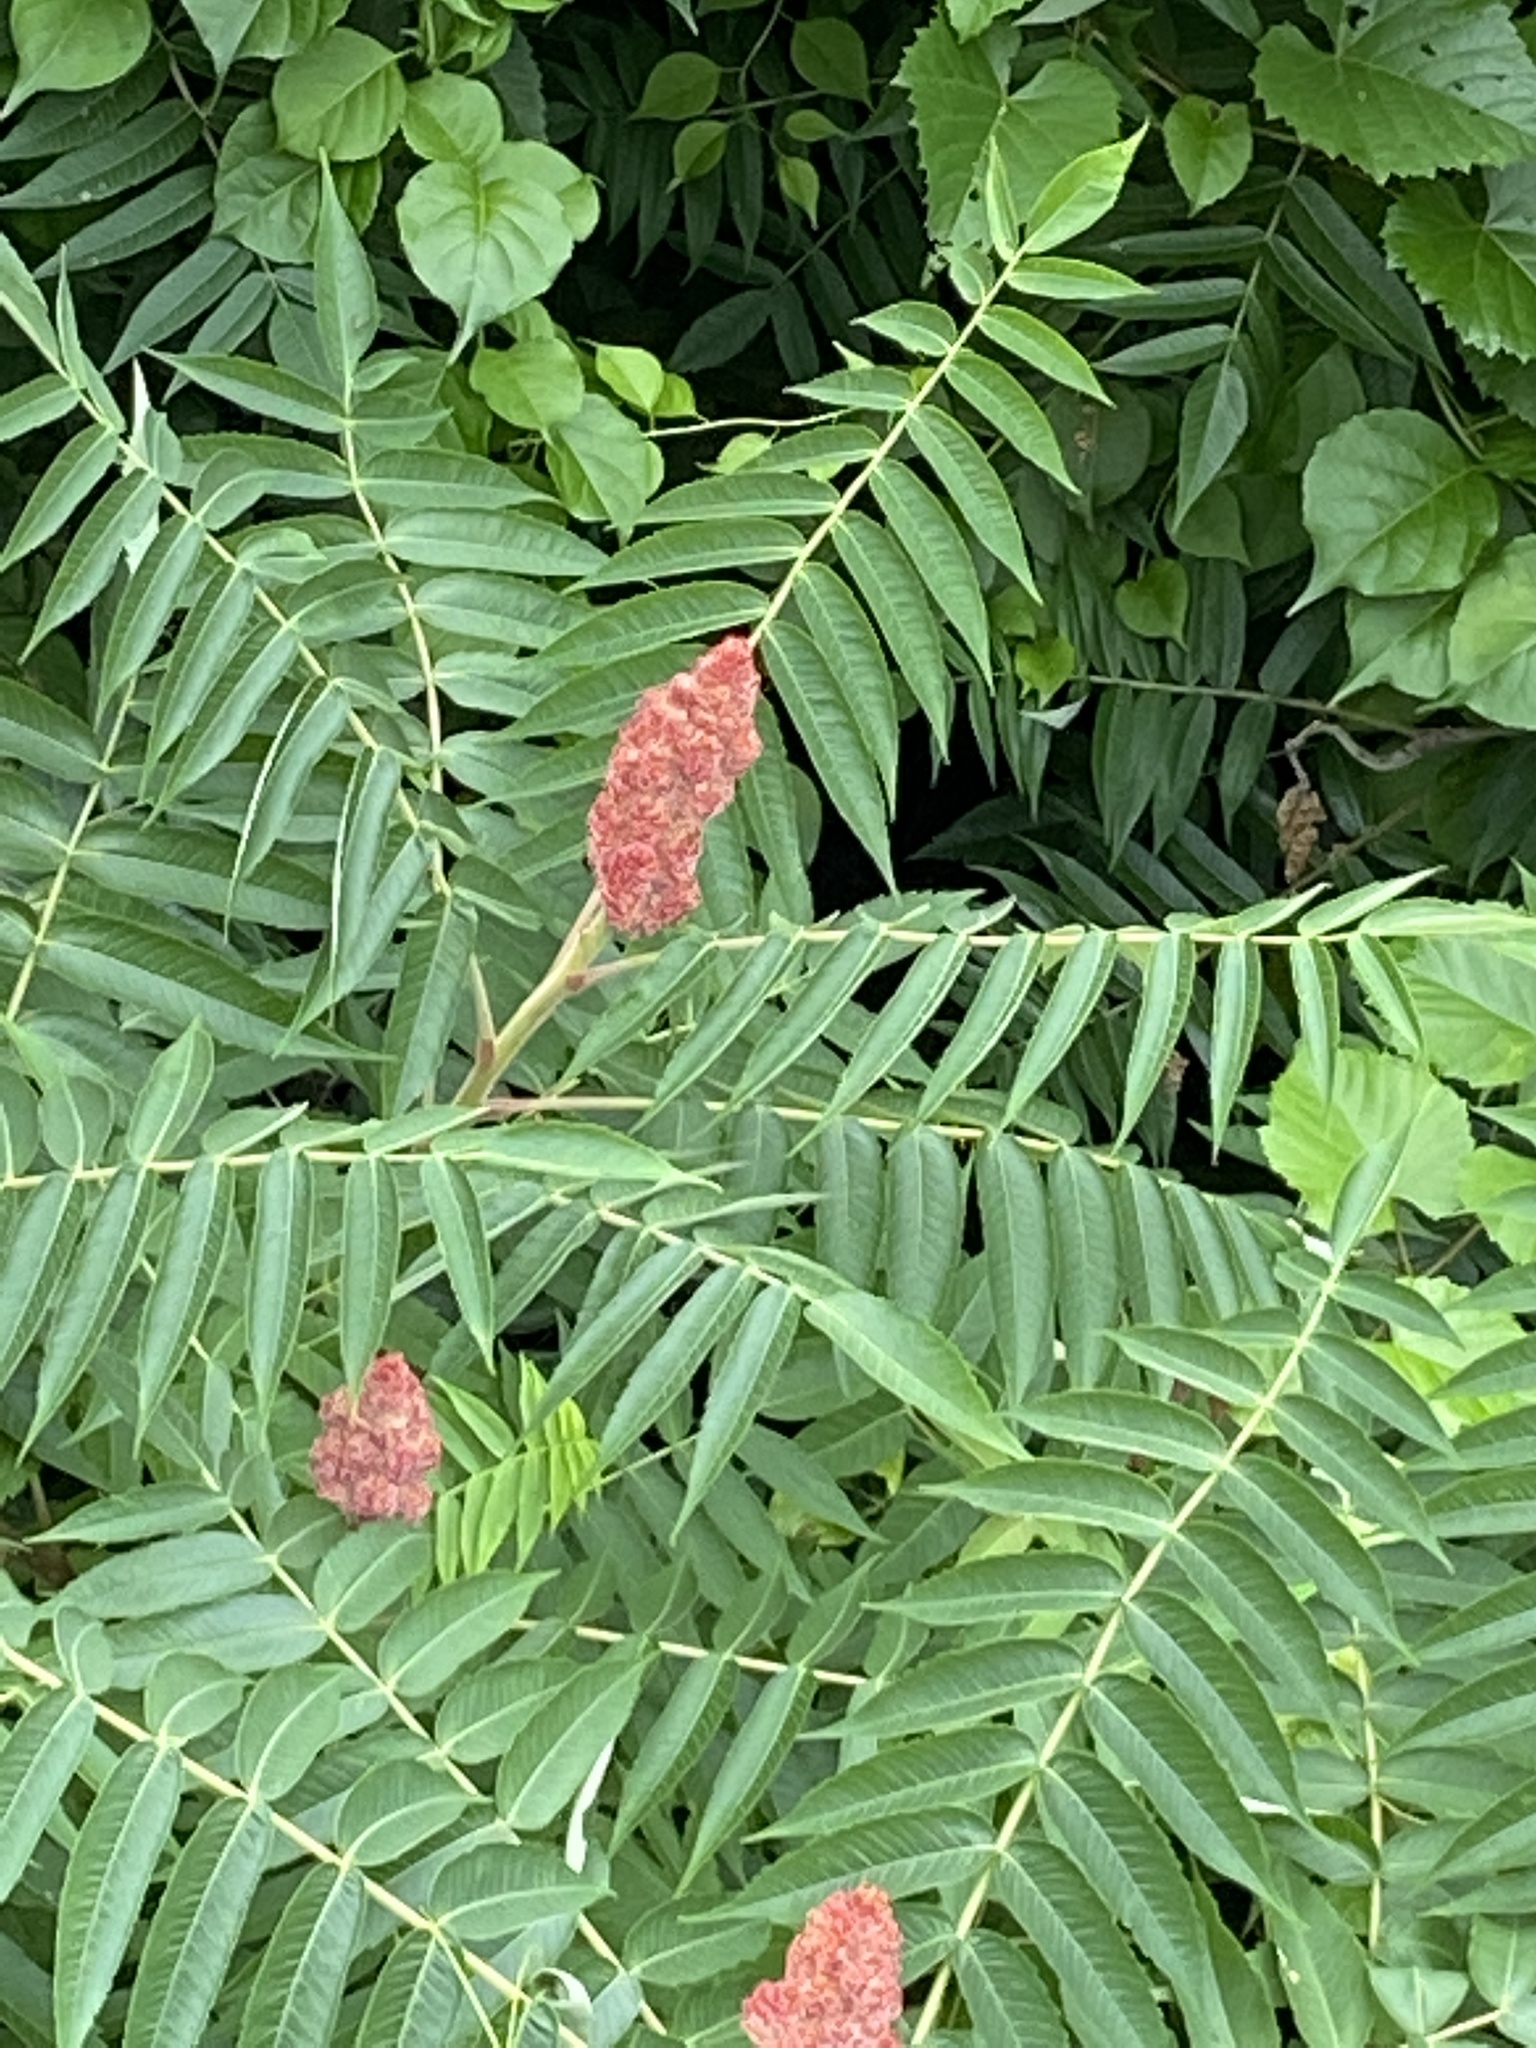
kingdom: Plantae
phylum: Tracheophyta
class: Magnoliopsida
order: Sapindales
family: Anacardiaceae
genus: Rhus
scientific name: Rhus typhina
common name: Staghorn sumac
